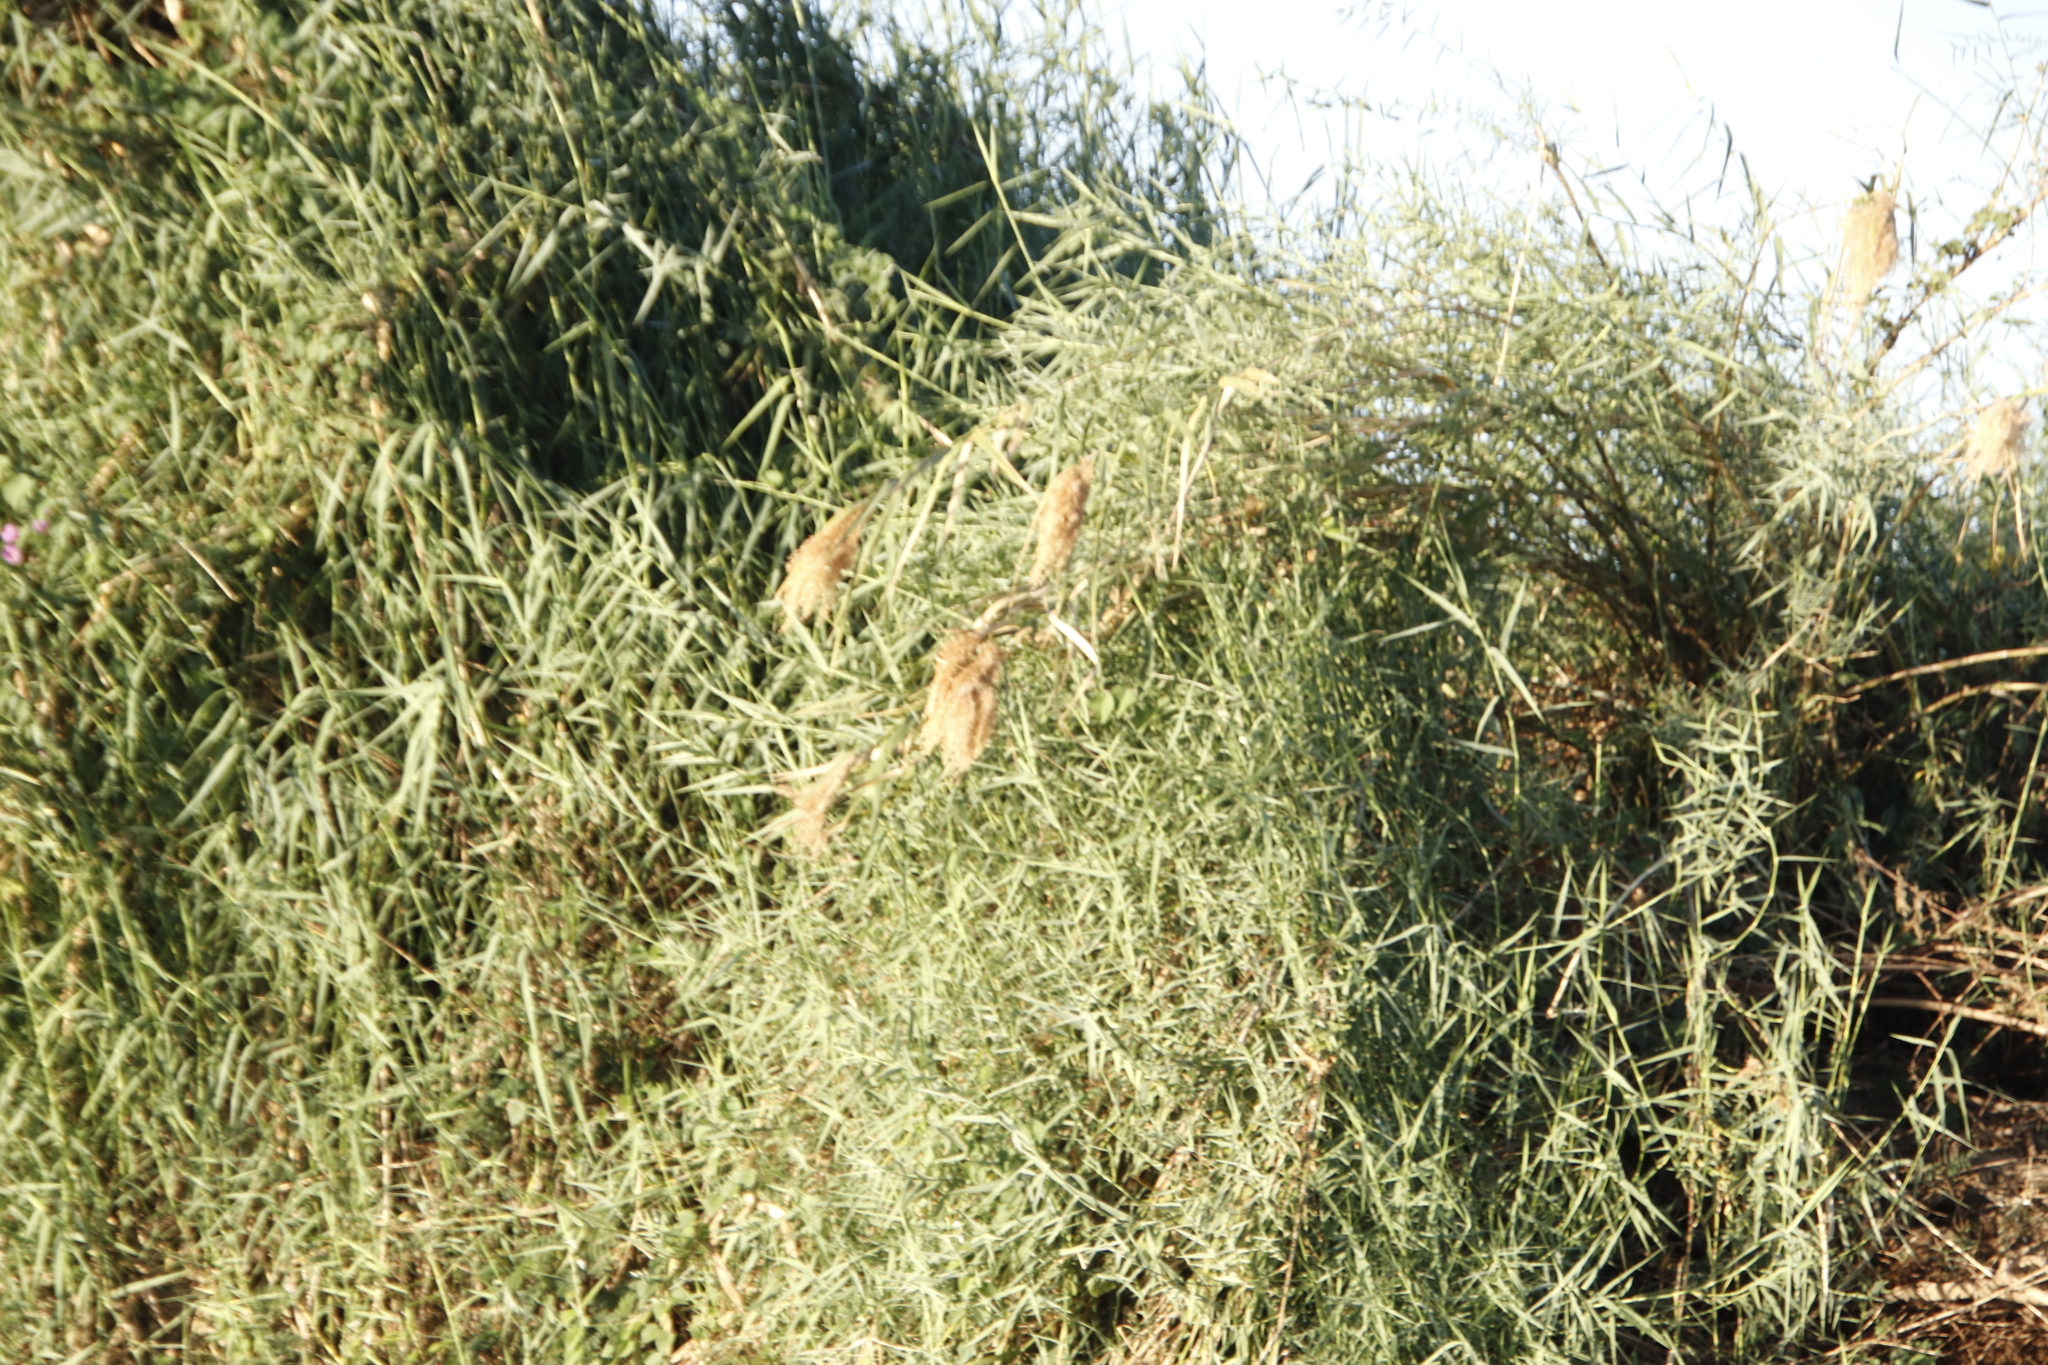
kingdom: Plantae
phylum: Tracheophyta
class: Liliopsida
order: Poales
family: Poaceae
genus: Phragmites
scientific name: Phragmites australis
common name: Common reed
